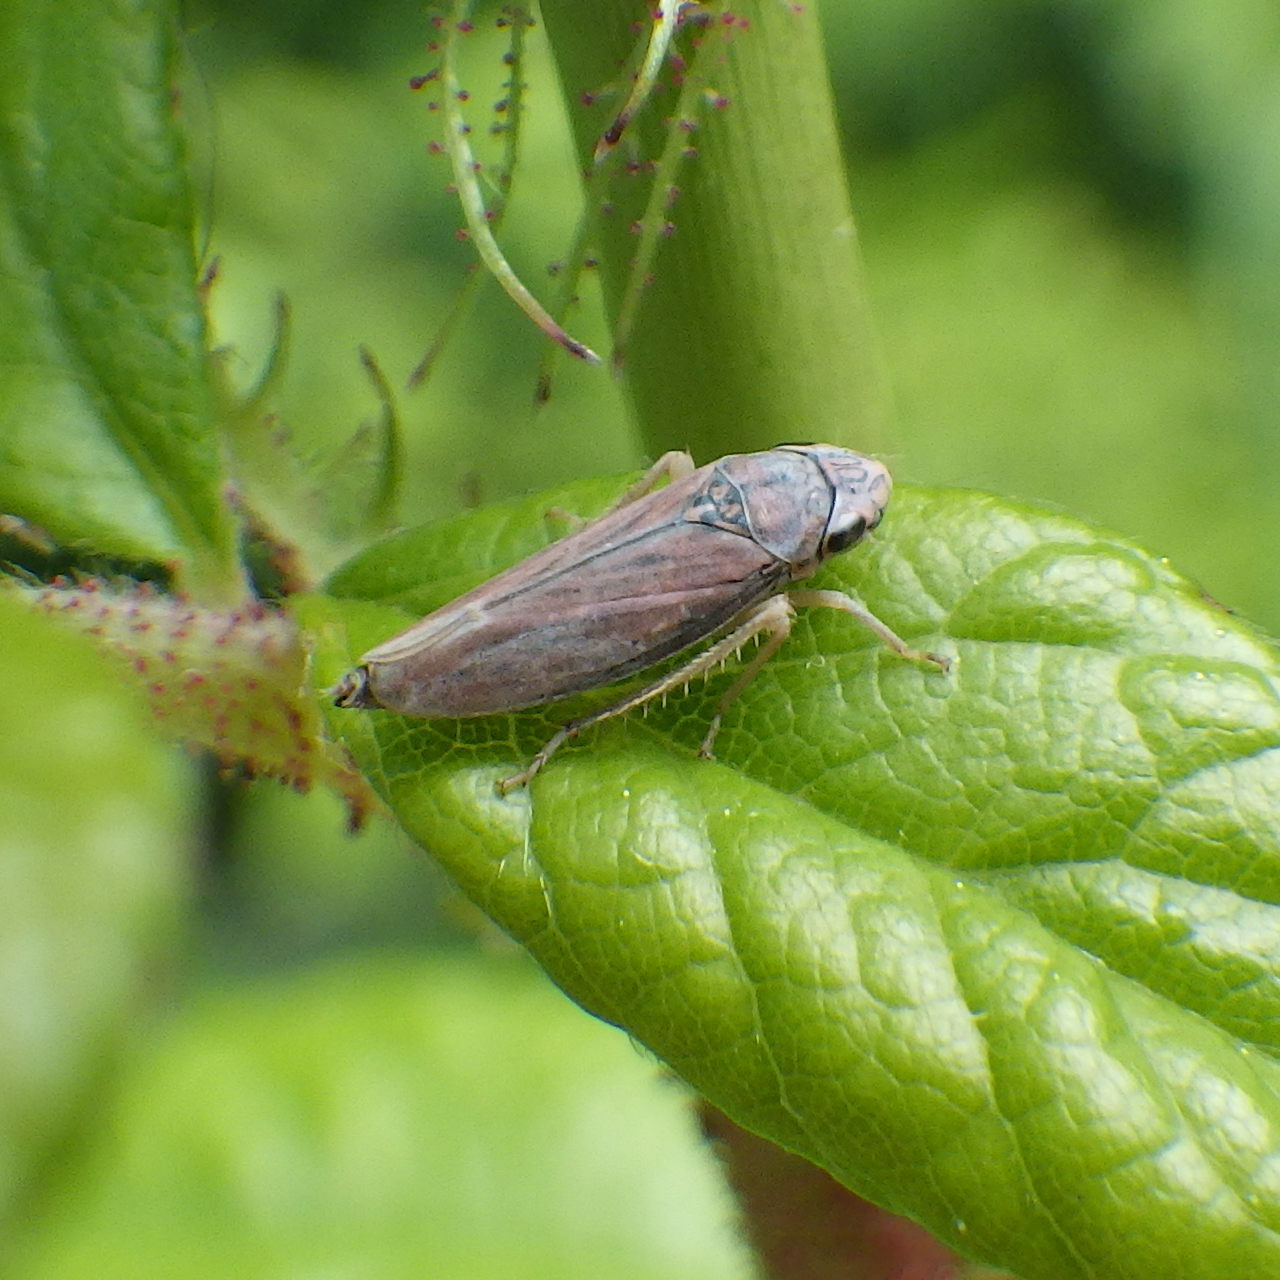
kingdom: Animalia
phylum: Arthropoda
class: Insecta
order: Hemiptera
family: Cicadellidae
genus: Neokolla
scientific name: Neokolla hieroglyphica
